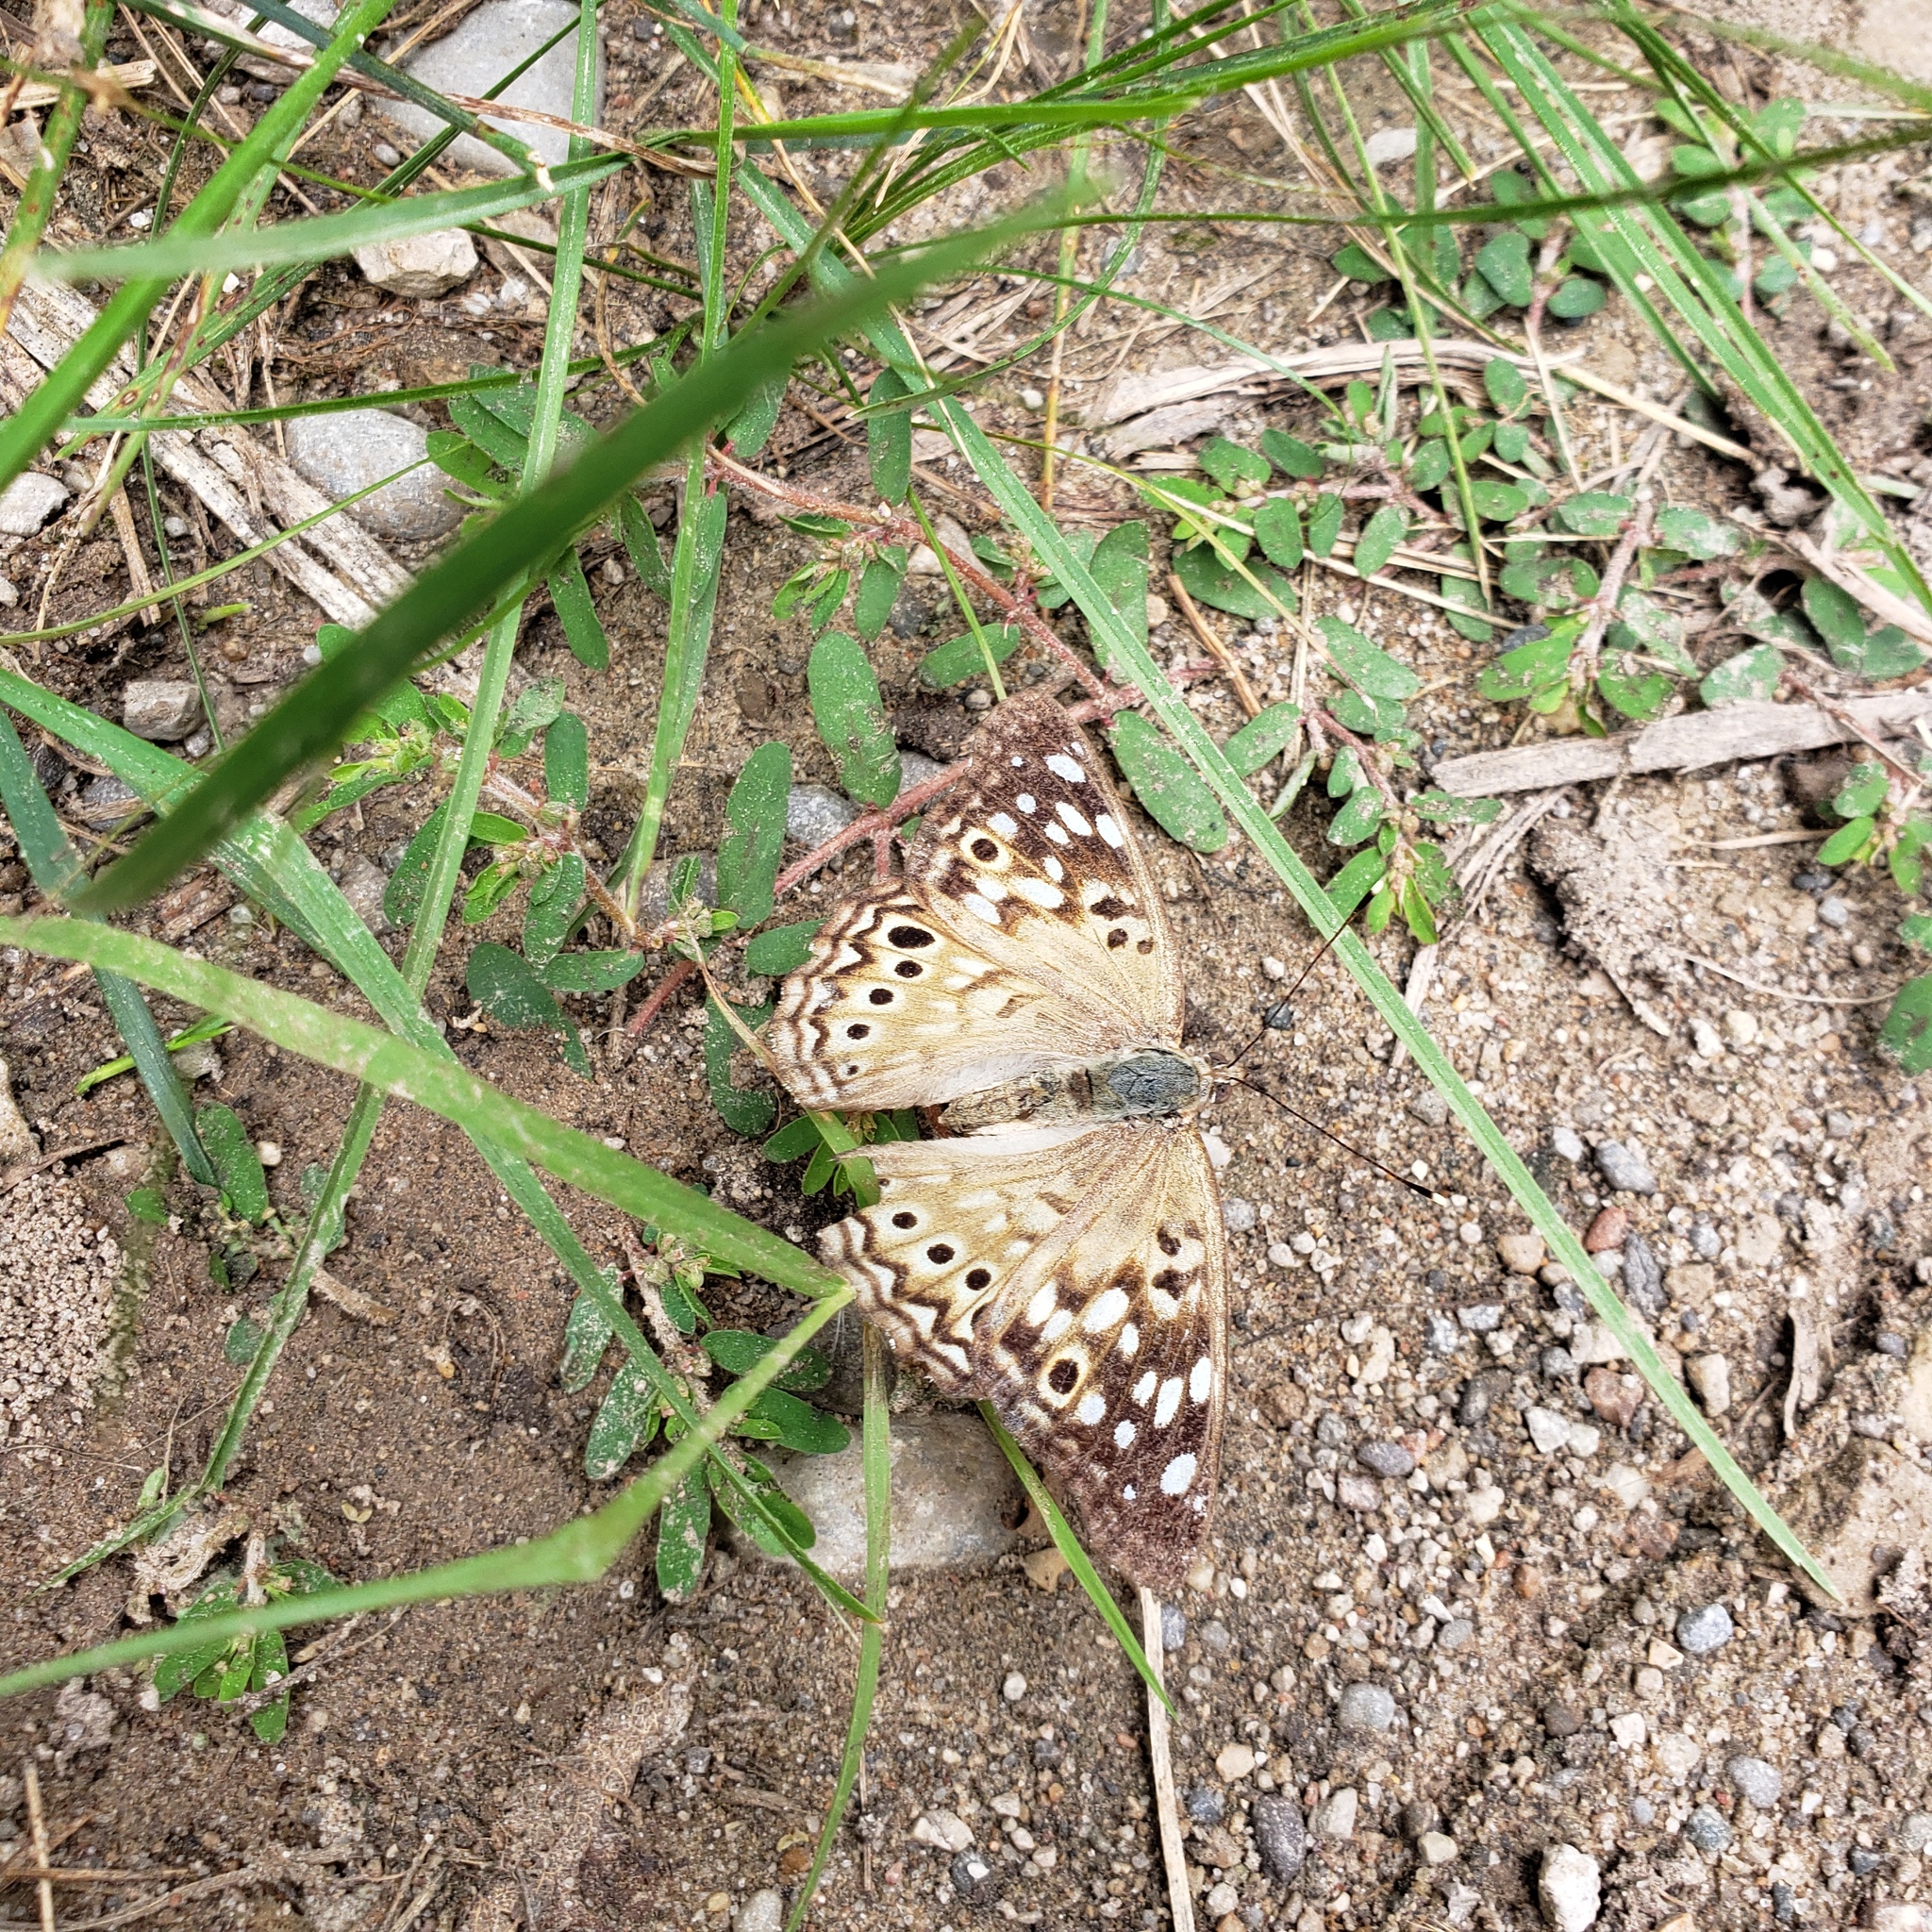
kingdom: Animalia
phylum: Arthropoda
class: Insecta
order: Lepidoptera
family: Nymphalidae
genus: Asterocampa
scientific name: Asterocampa celtis
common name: Hackberry emperor
